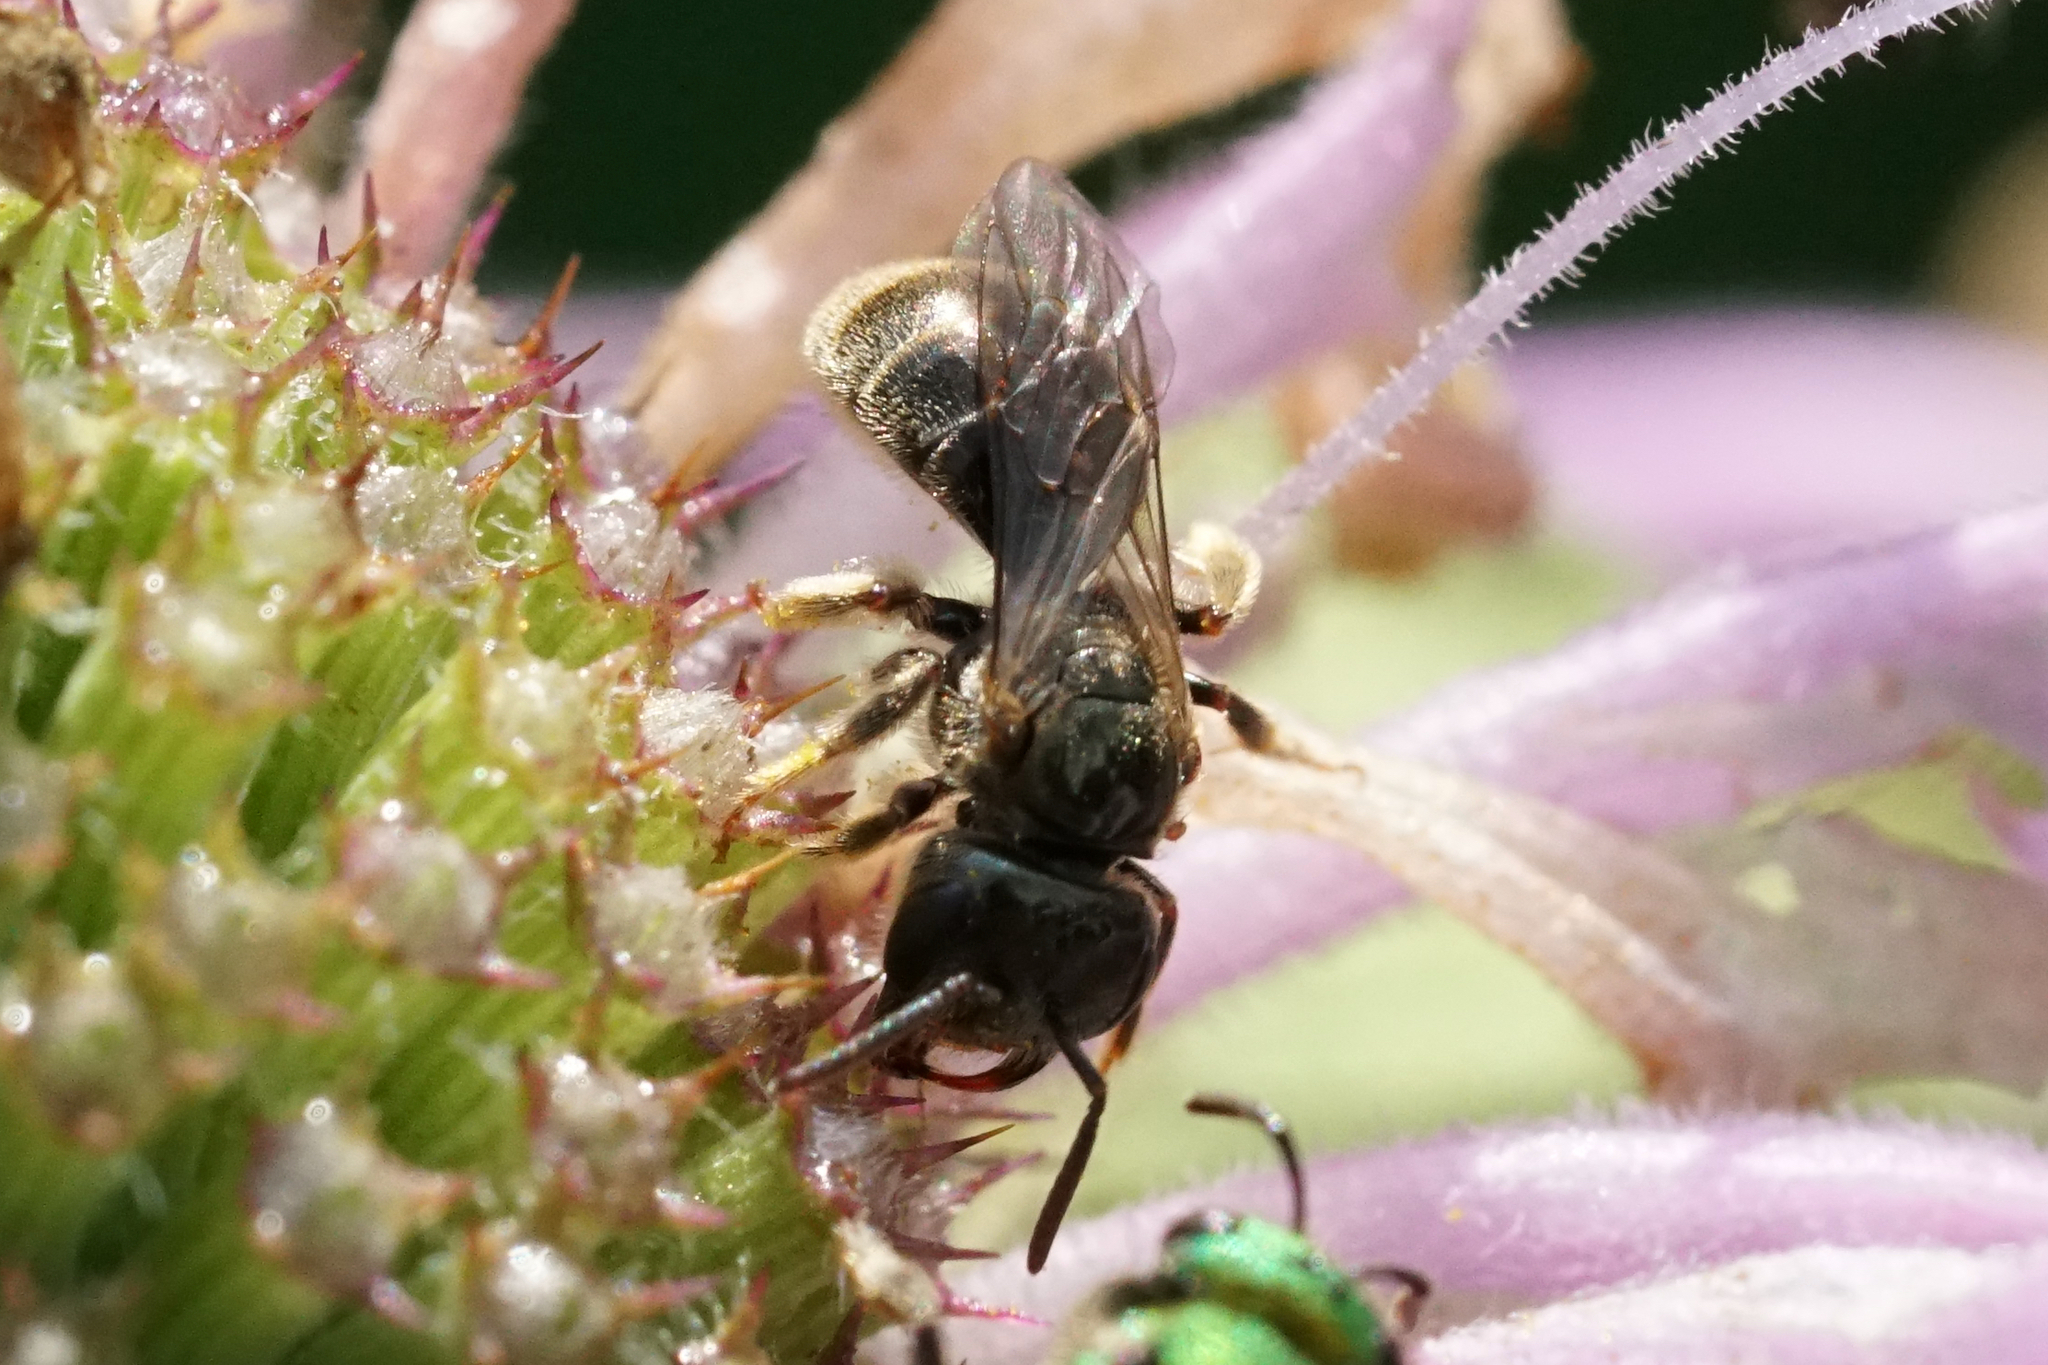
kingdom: Animalia
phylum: Arthropoda
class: Insecta
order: Hymenoptera
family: Halictidae
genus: Dialictus
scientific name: Dialictus
